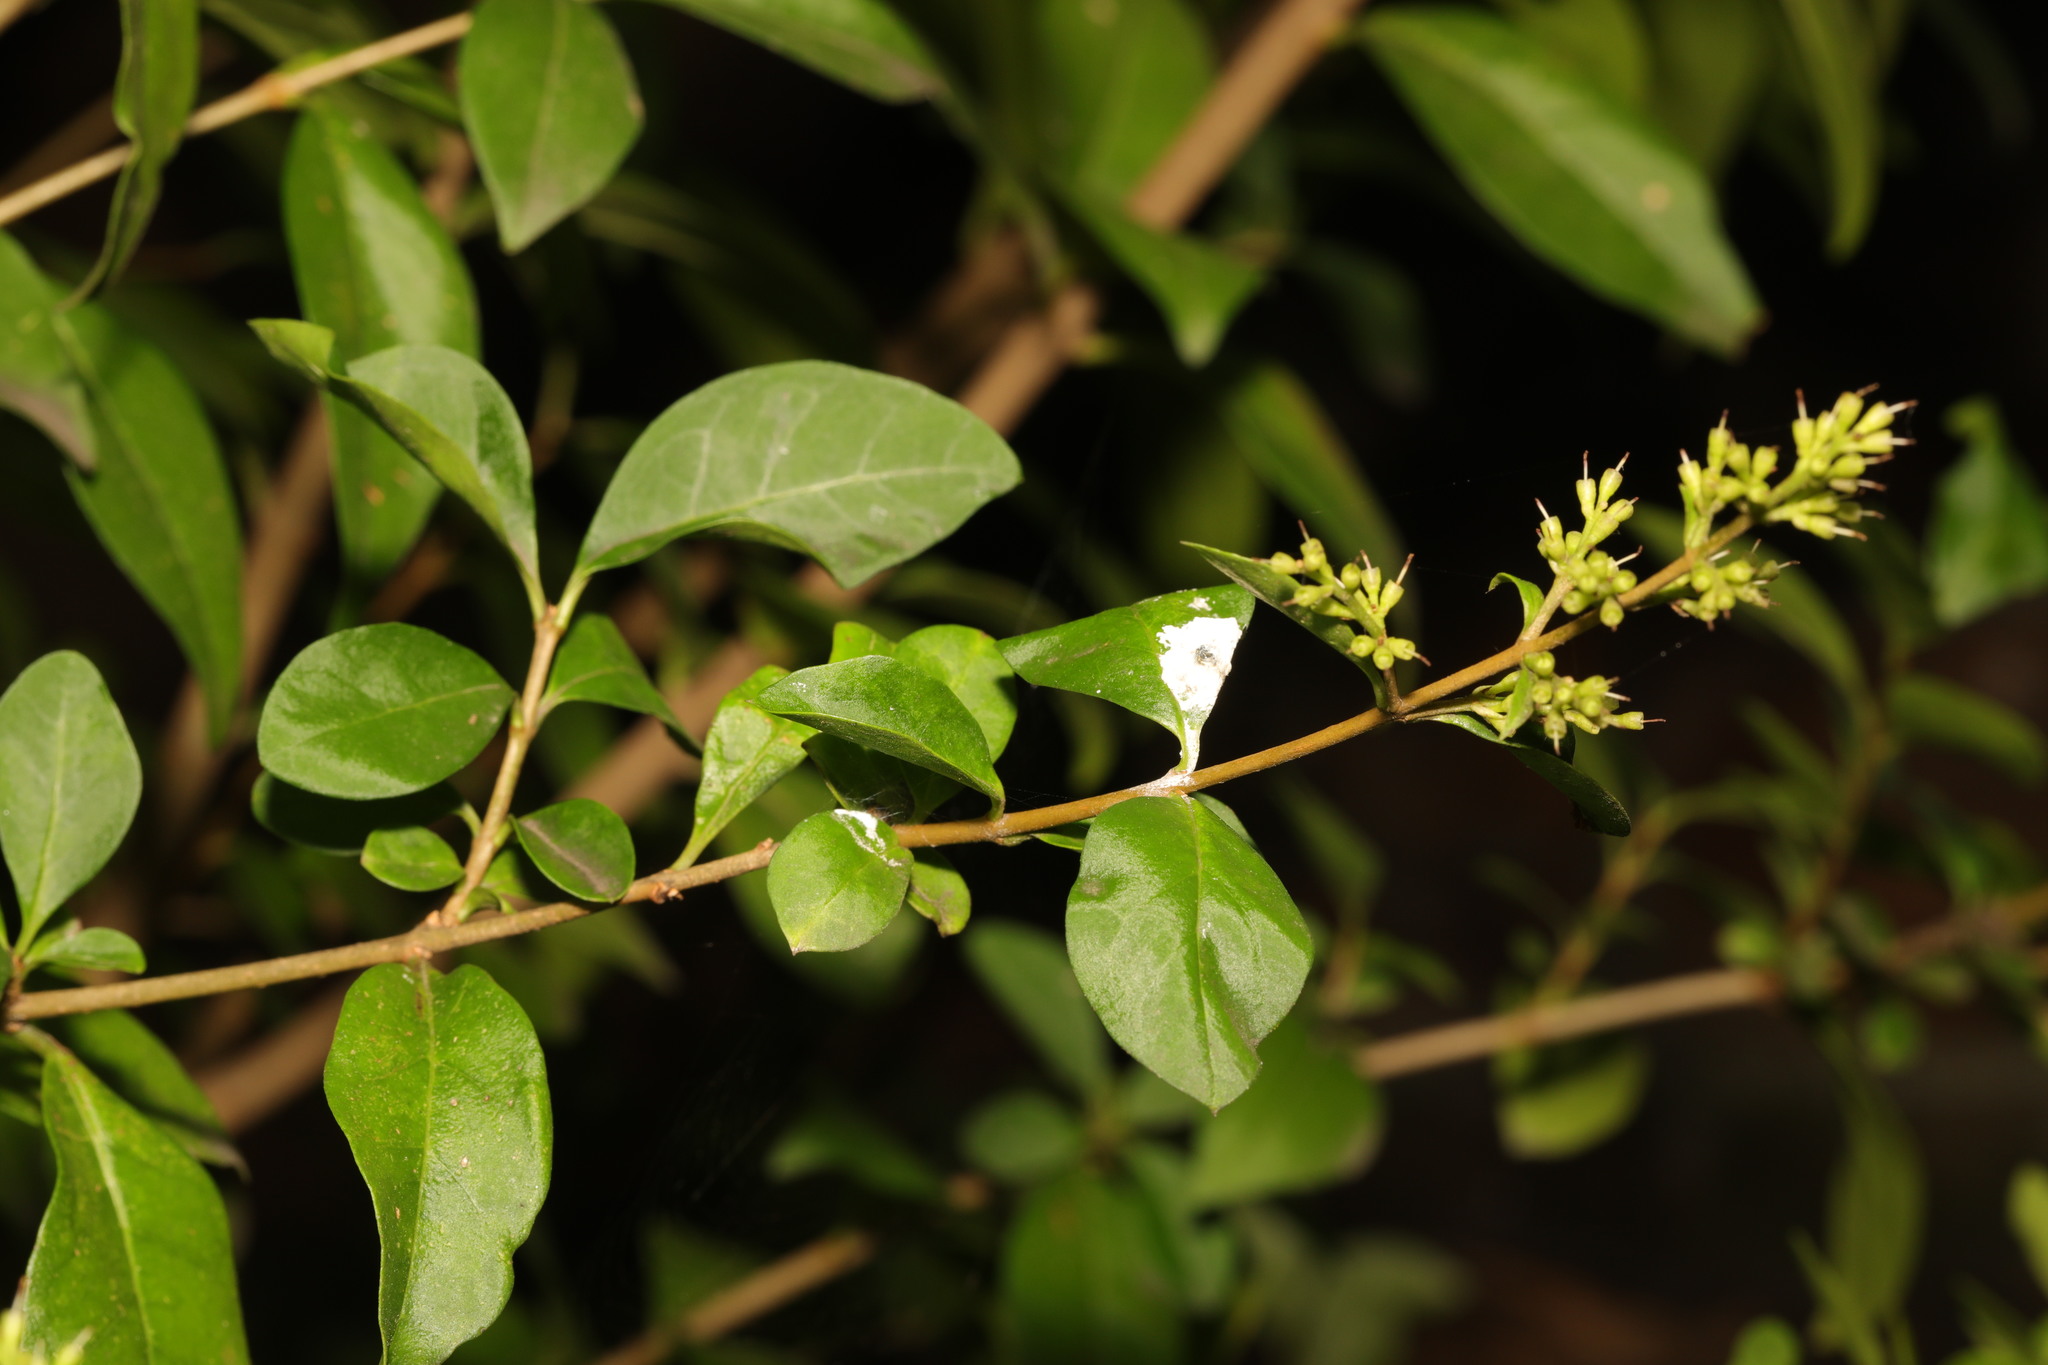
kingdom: Plantae
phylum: Tracheophyta
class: Magnoliopsida
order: Lamiales
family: Oleaceae
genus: Ligustrum
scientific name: Ligustrum ovalifolium
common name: California privet
